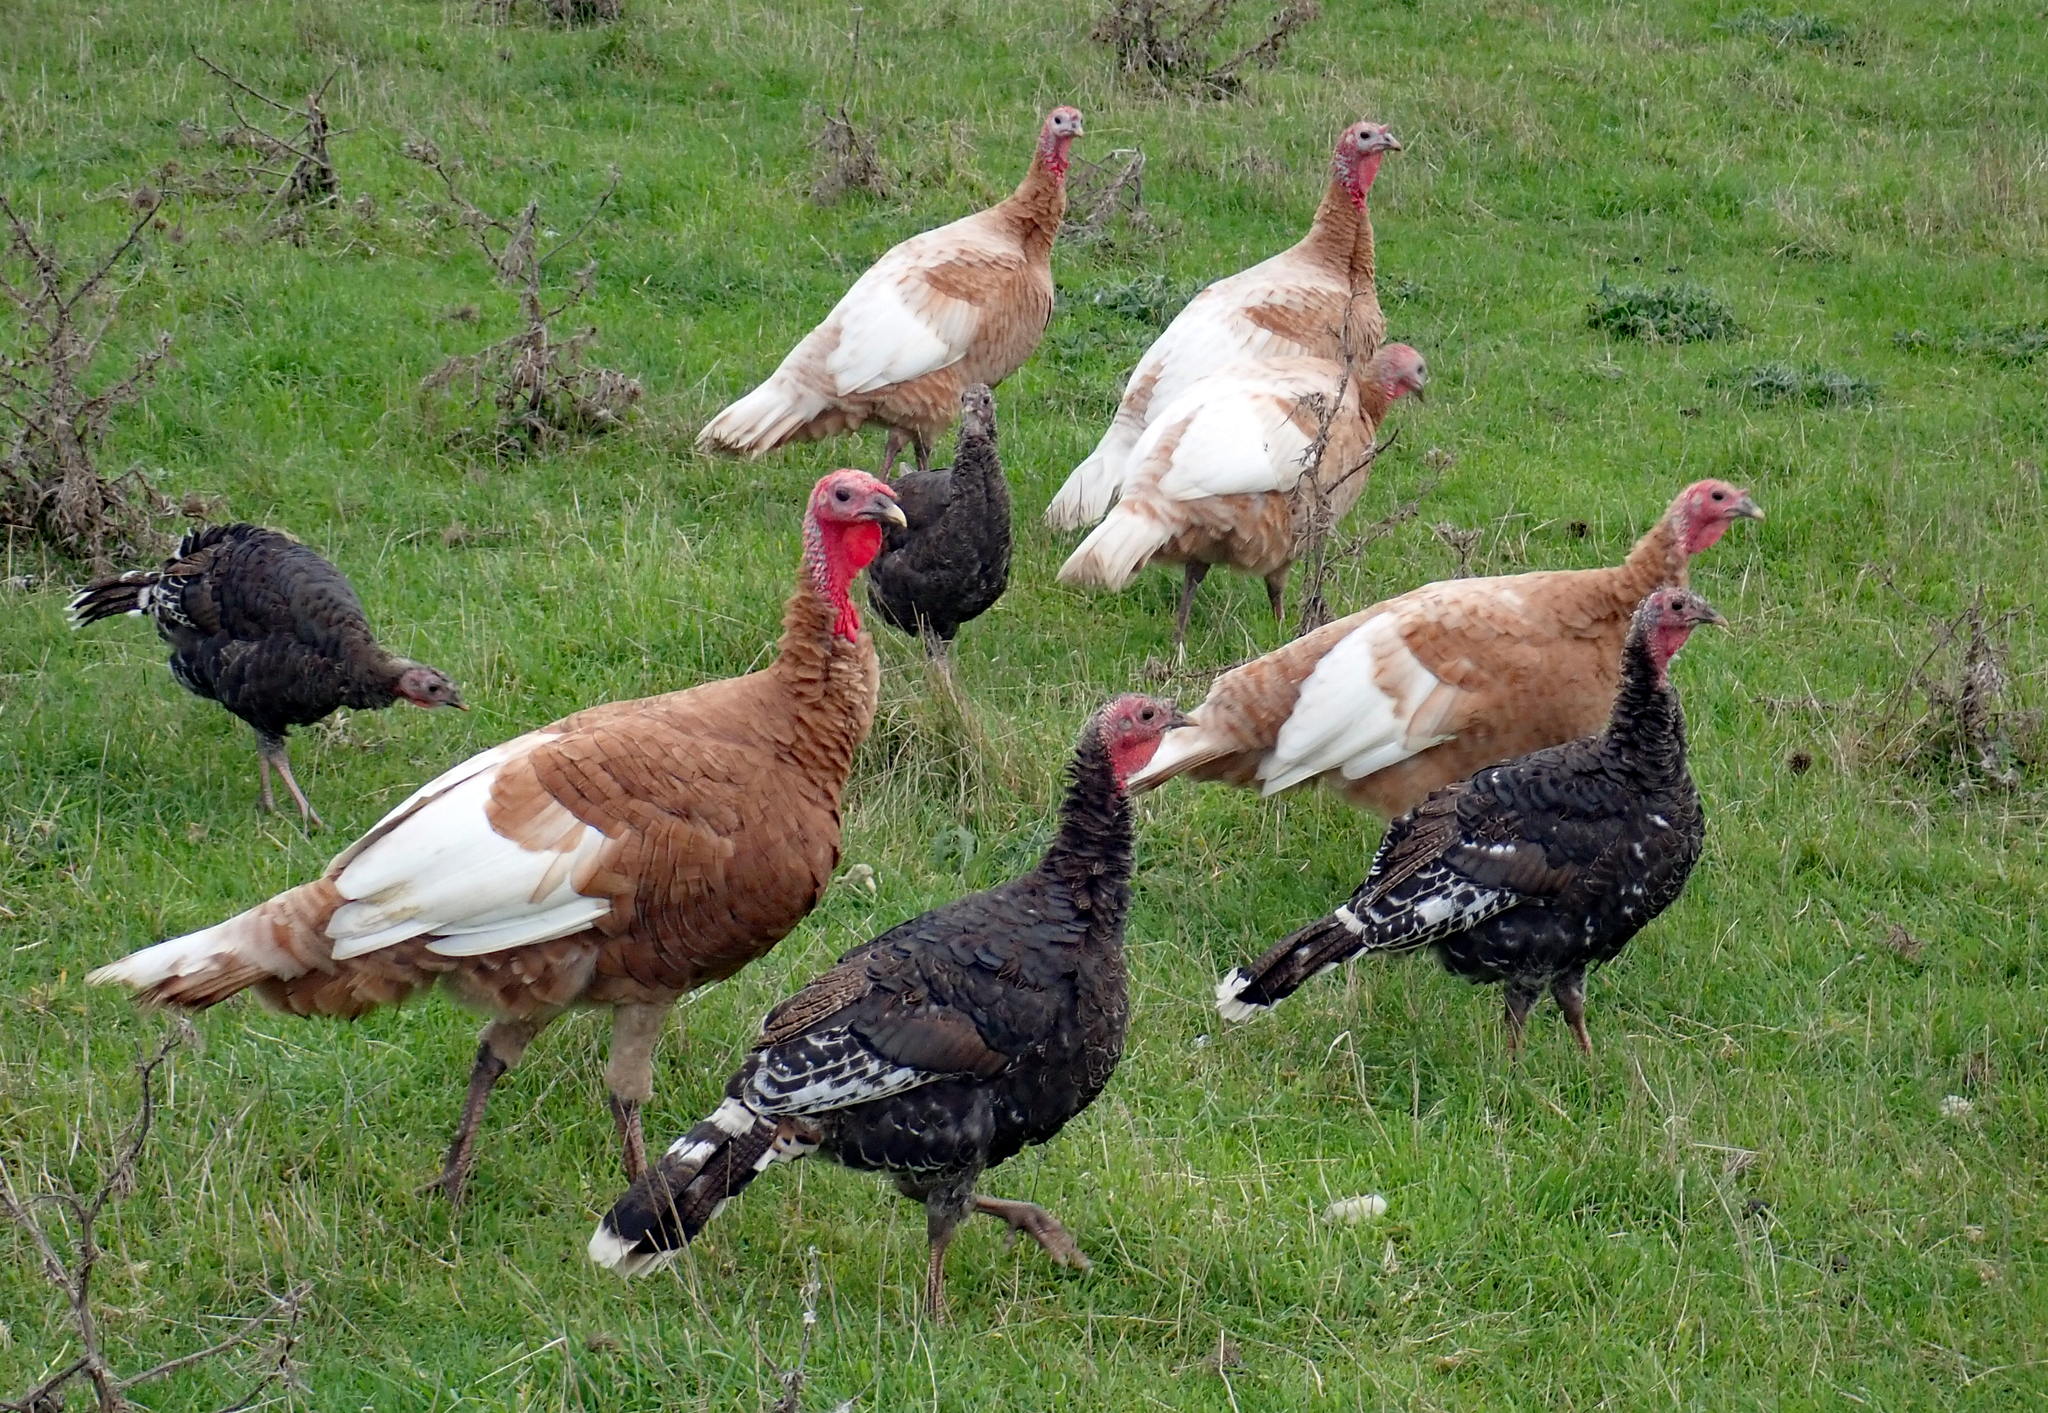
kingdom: Animalia
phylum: Chordata
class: Aves
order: Galliformes
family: Phasianidae
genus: Meleagris
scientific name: Meleagris gallopavo
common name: Wild turkey
